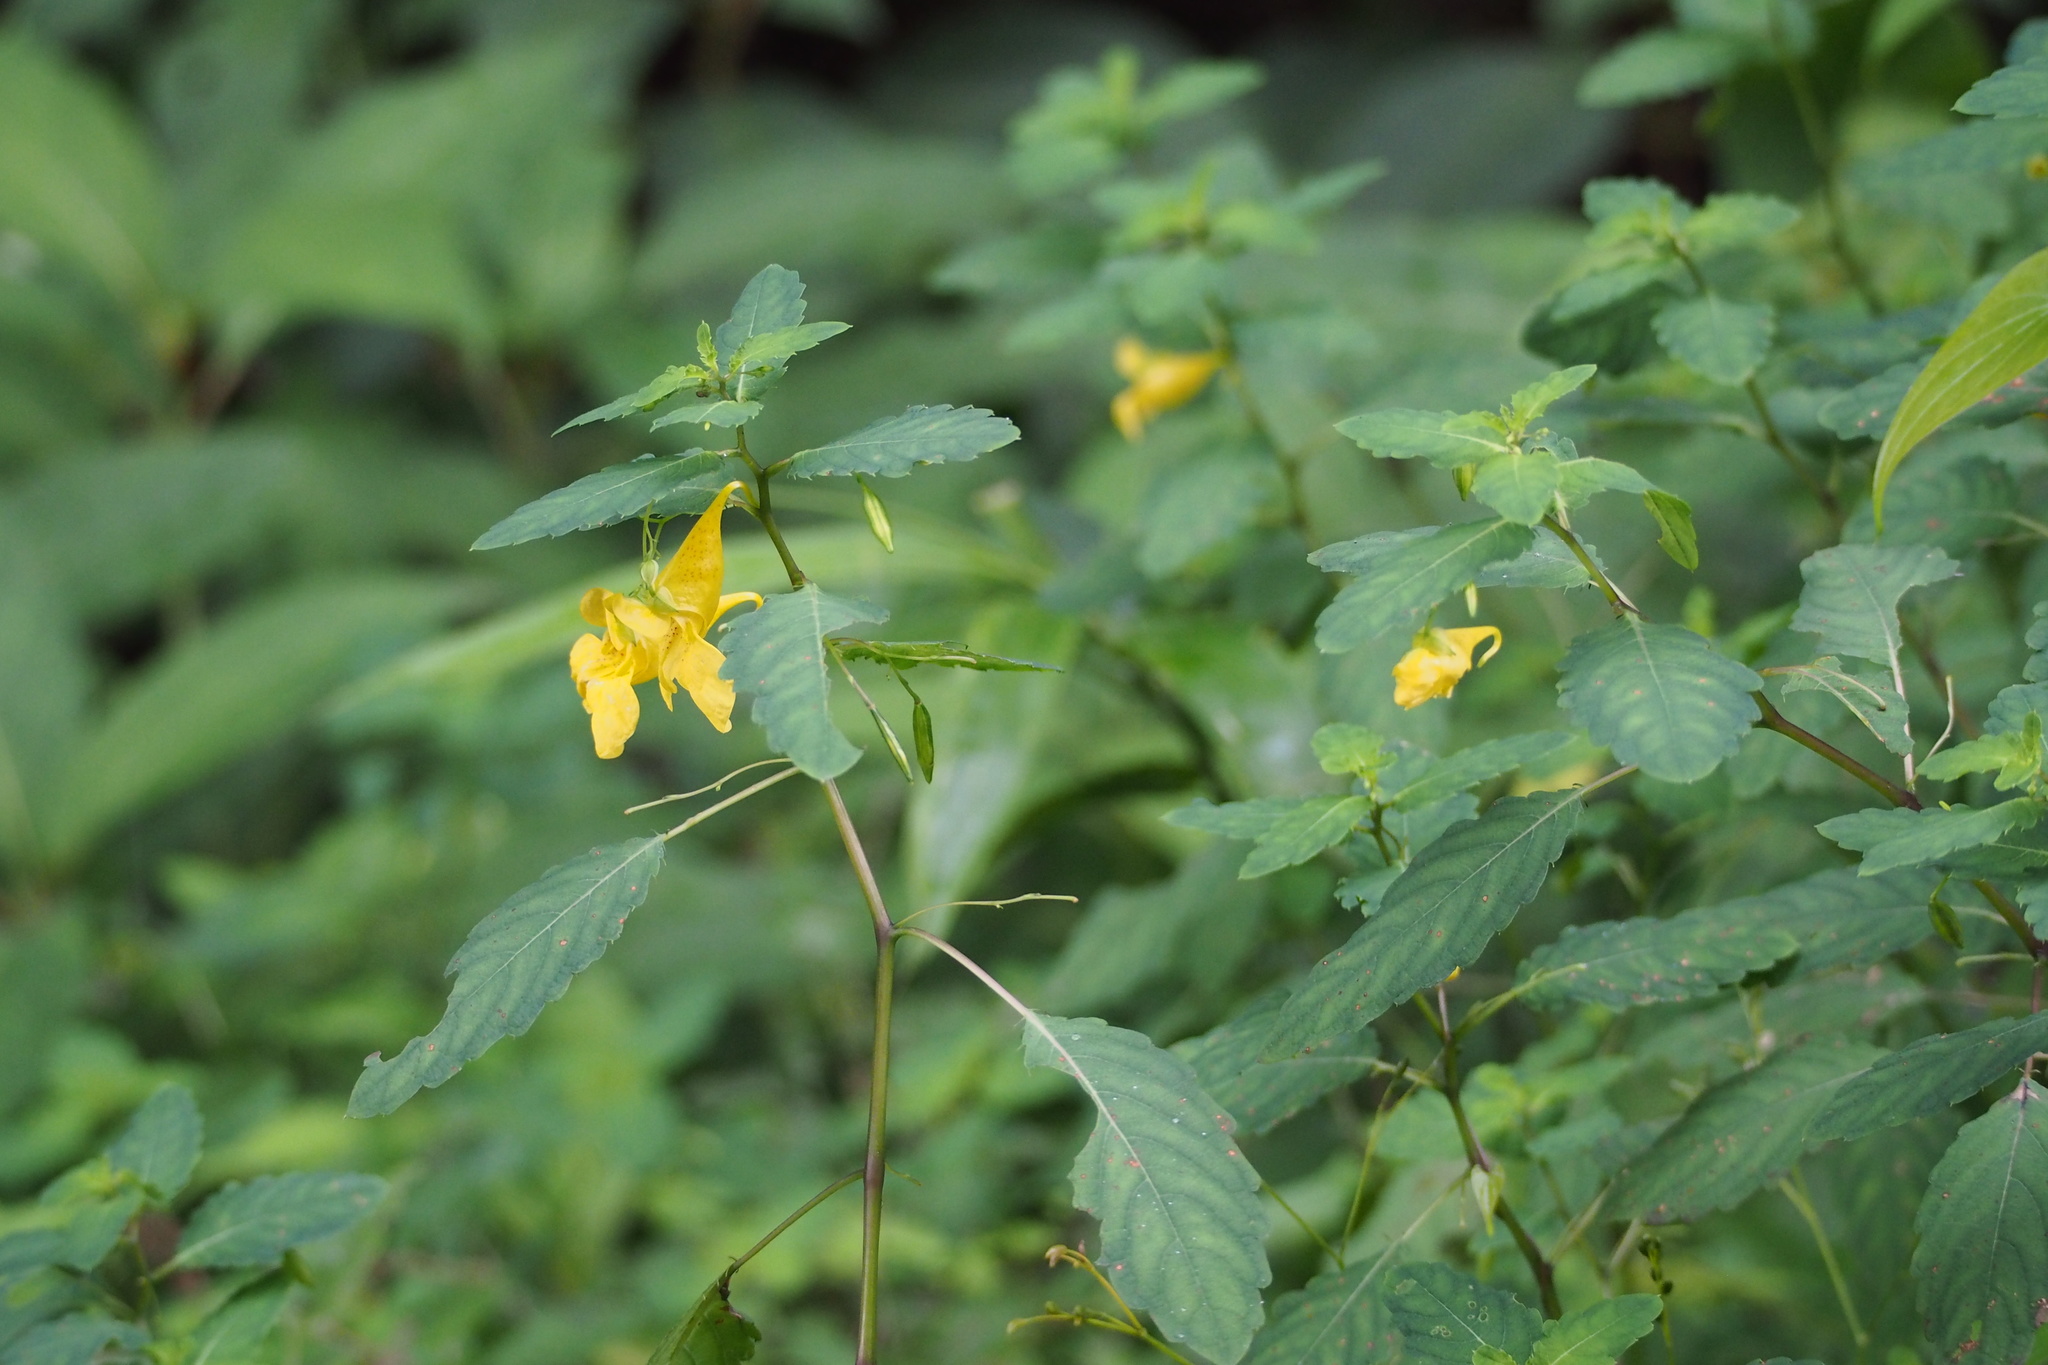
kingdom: Plantae
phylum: Tracheophyta
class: Magnoliopsida
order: Ericales
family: Balsaminaceae
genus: Impatiens
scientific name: Impatiens noli-tangere
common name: Touch-me-not balsam
